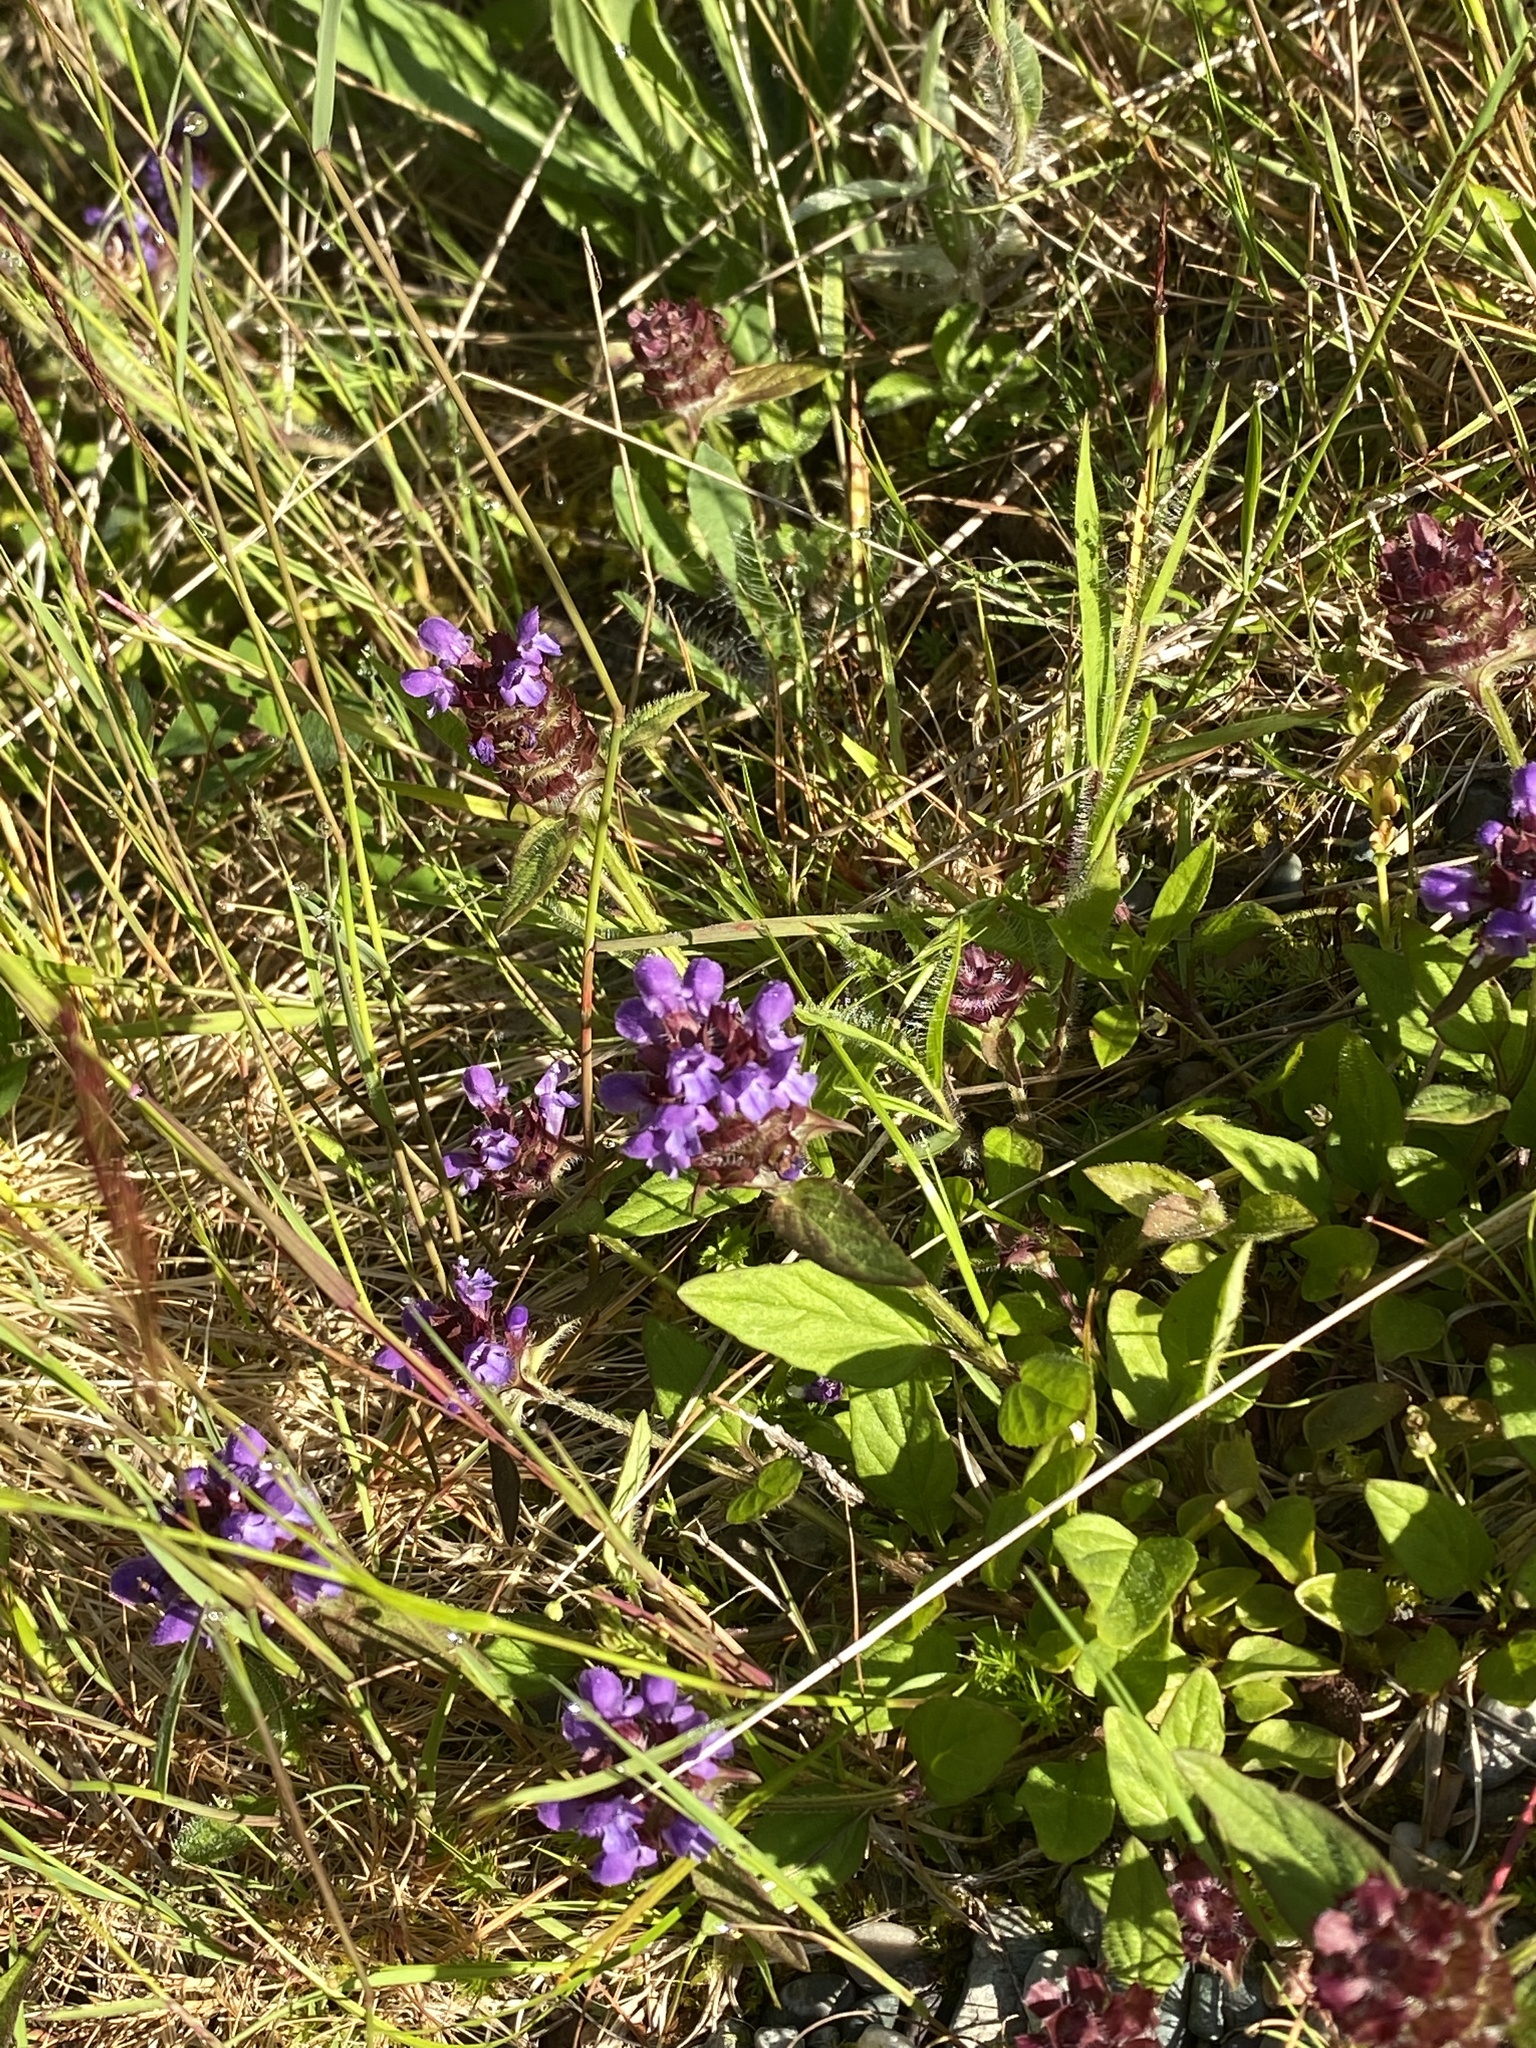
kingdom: Plantae
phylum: Tracheophyta
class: Magnoliopsida
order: Lamiales
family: Lamiaceae
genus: Prunella
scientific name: Prunella vulgaris
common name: Heal-all
